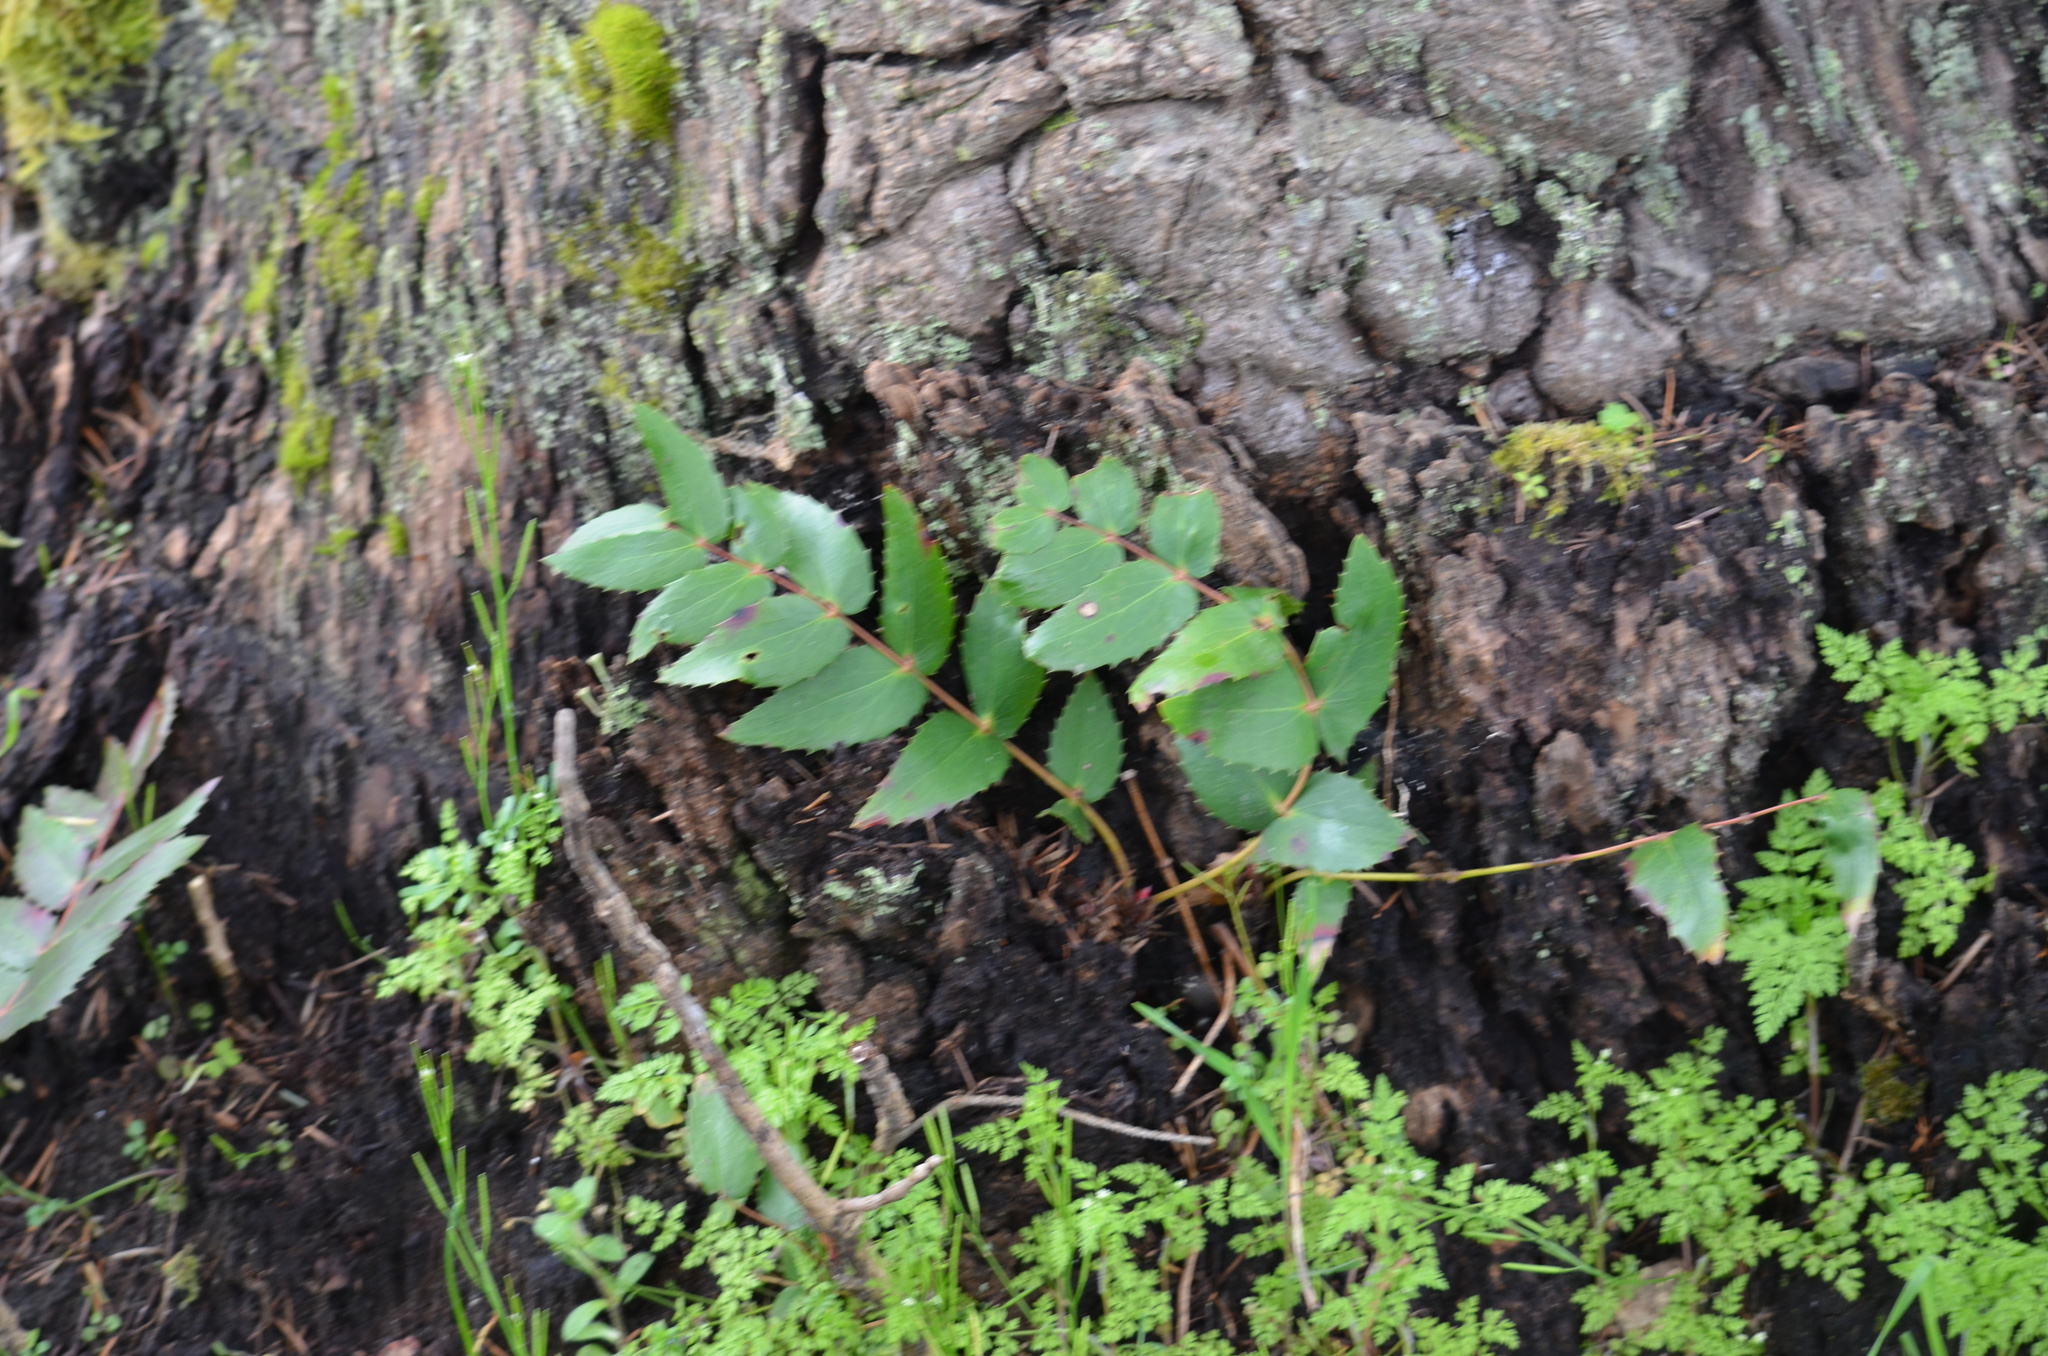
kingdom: Plantae
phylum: Tracheophyta
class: Magnoliopsida
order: Ranunculales
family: Berberidaceae
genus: Mahonia
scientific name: Mahonia nervosa
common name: Cascade oregon-grape
